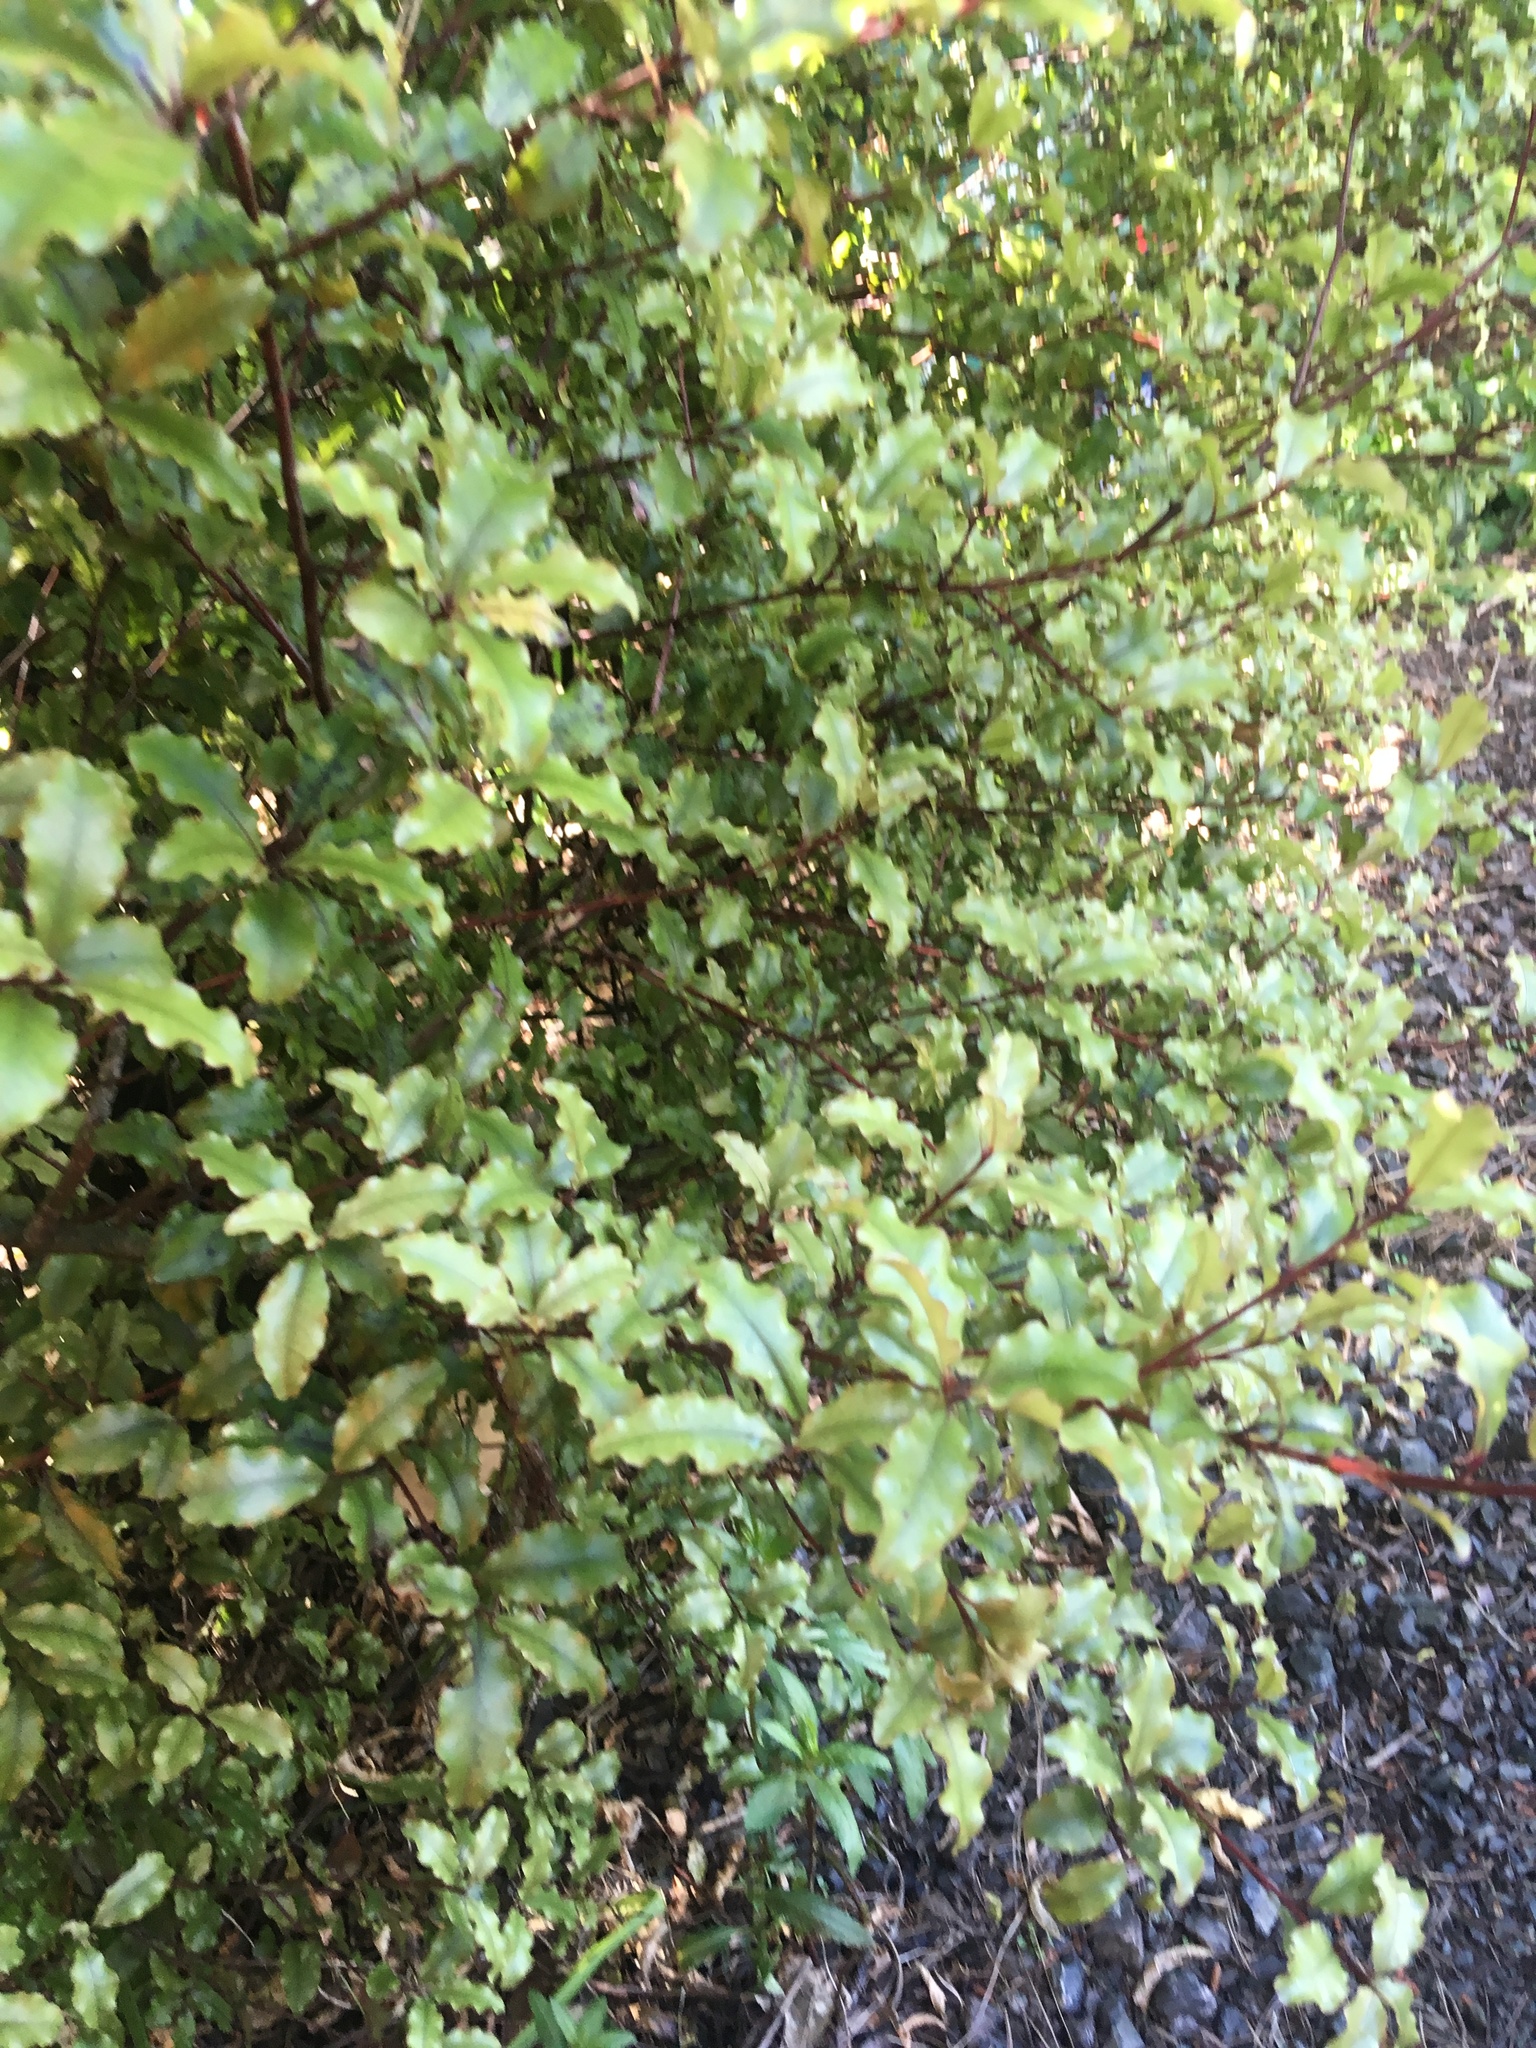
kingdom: Plantae
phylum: Tracheophyta
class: Magnoliopsida
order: Ericales
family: Primulaceae
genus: Myrsine
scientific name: Myrsine australis
